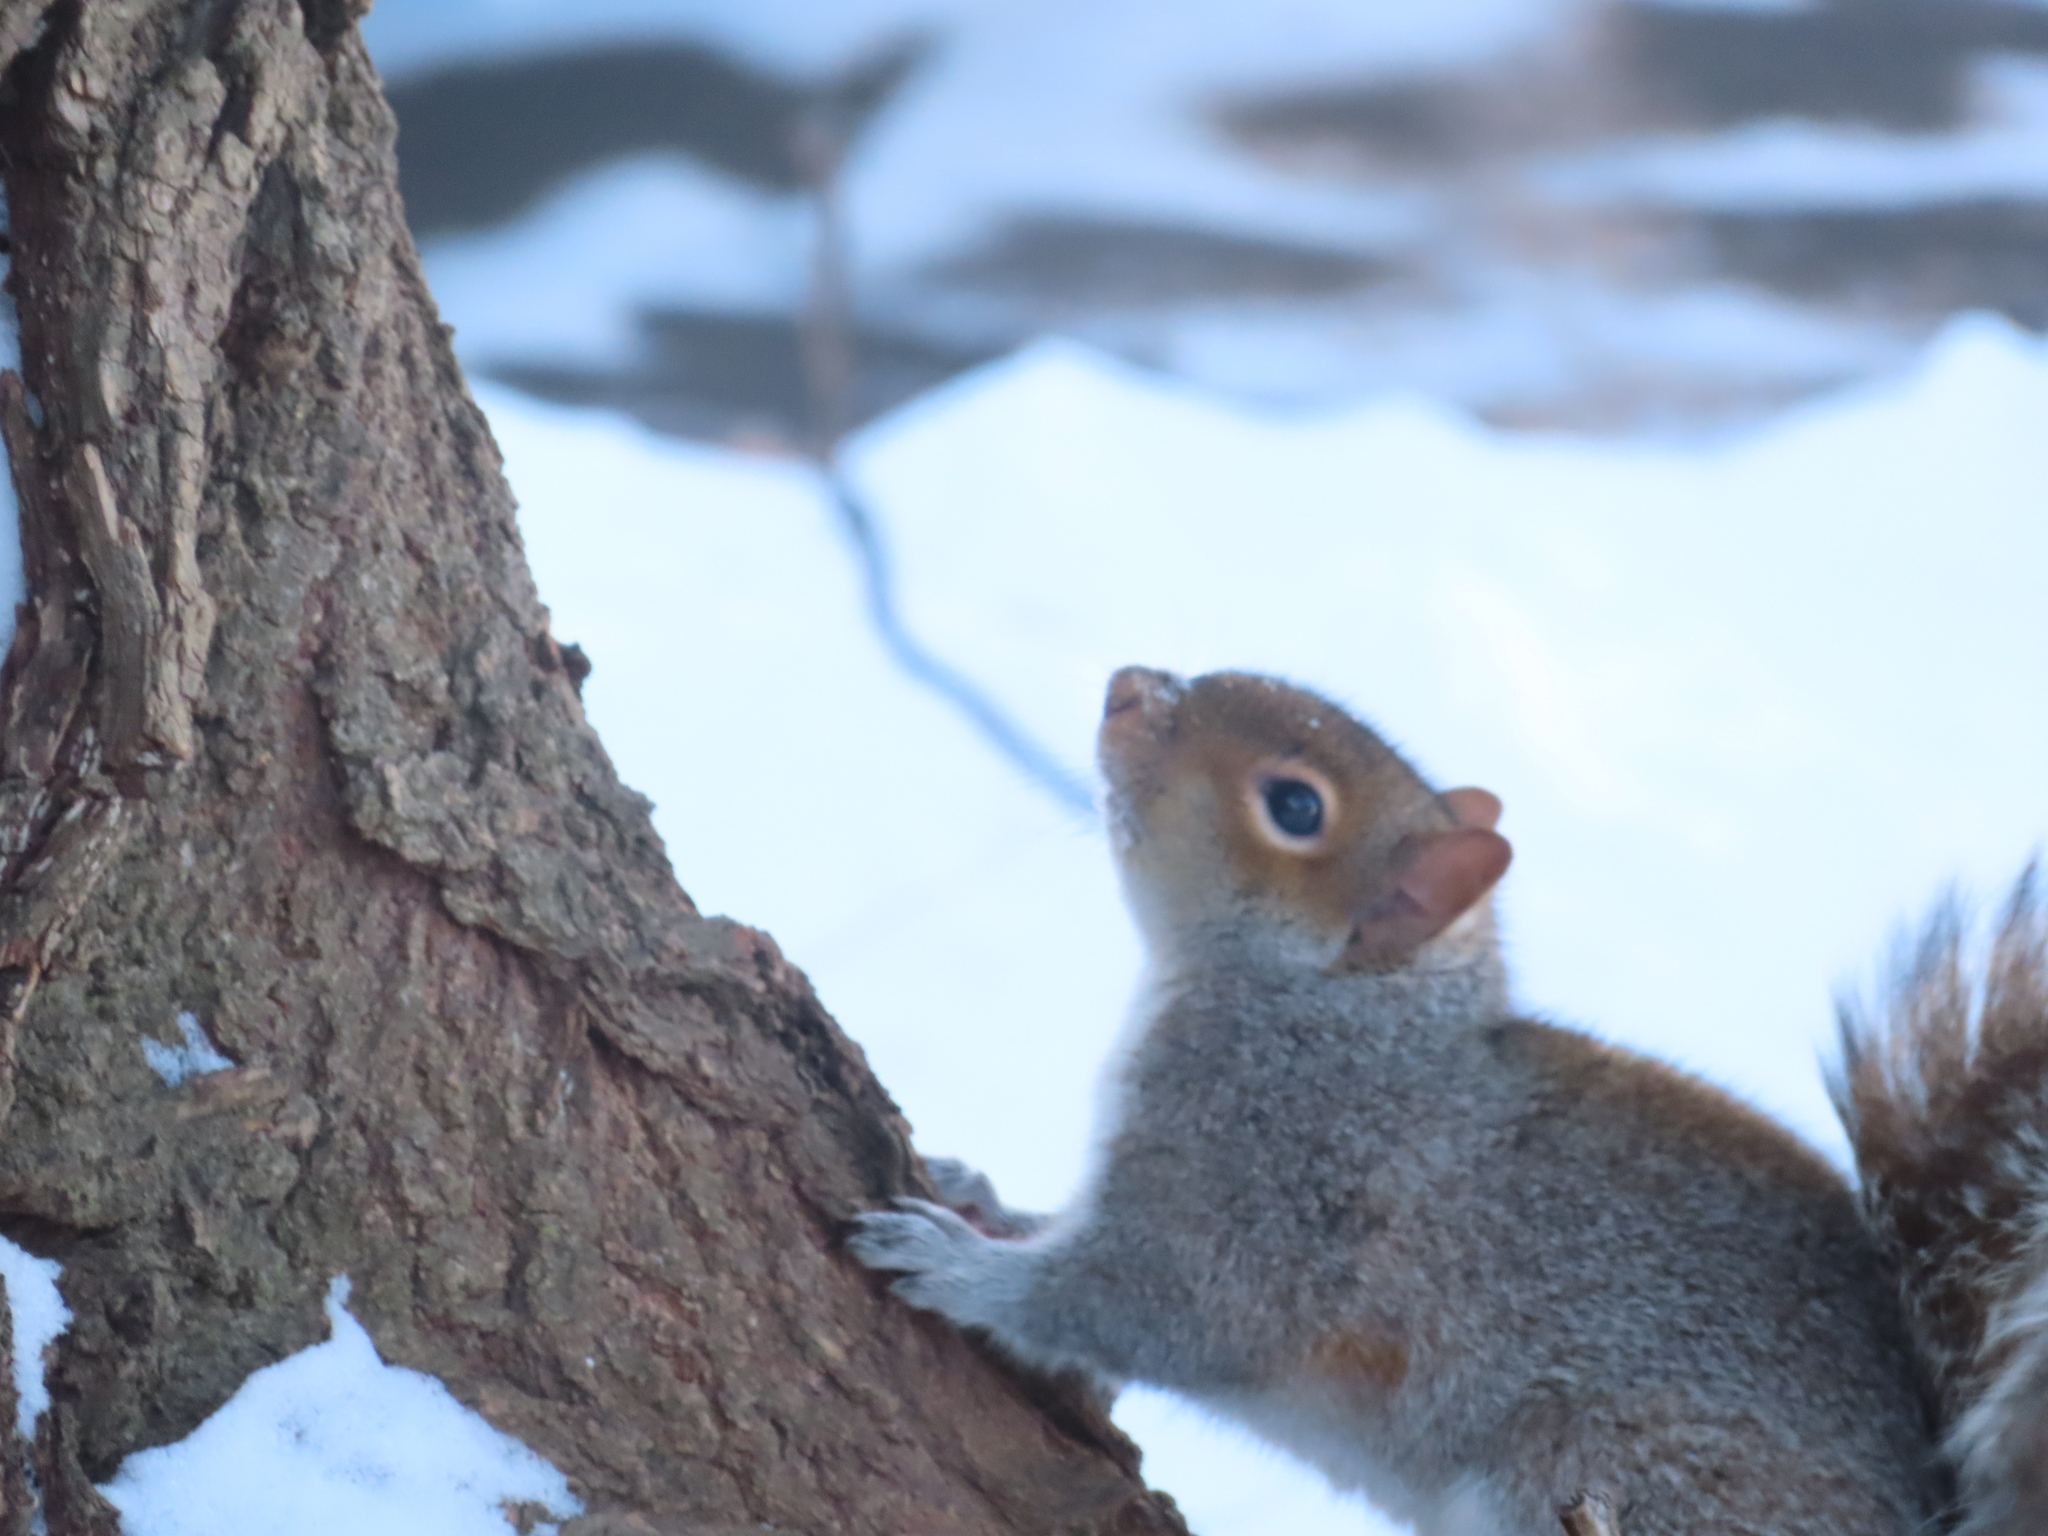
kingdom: Animalia
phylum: Chordata
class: Mammalia
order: Rodentia
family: Sciuridae
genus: Sciurus
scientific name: Sciurus carolinensis
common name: Eastern gray squirrel
